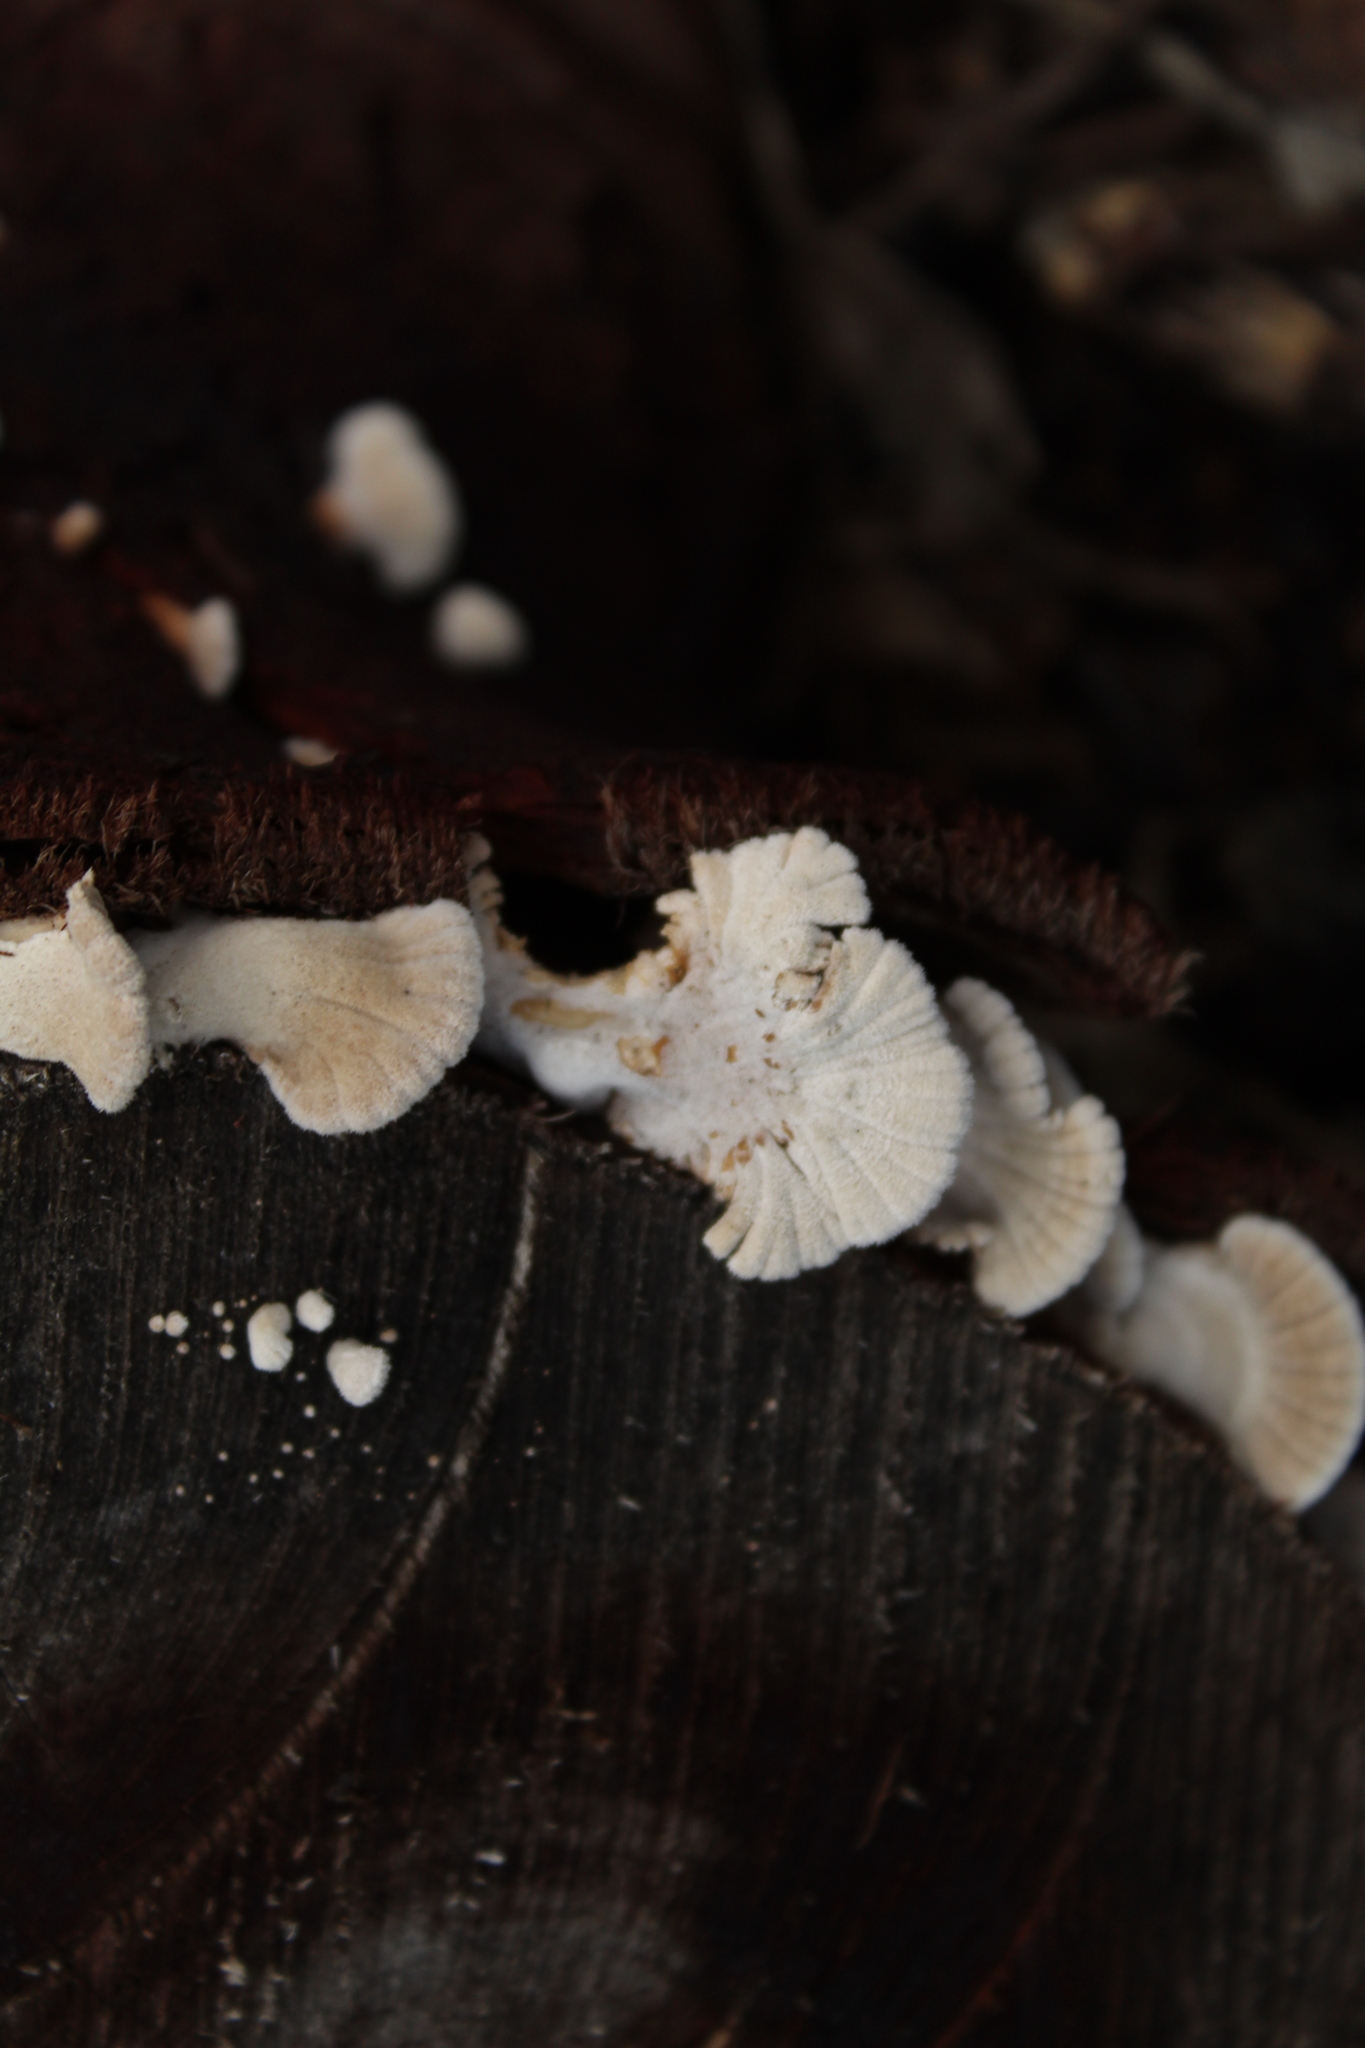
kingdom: Fungi
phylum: Basidiomycota
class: Agaricomycetes
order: Agaricales
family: Schizophyllaceae
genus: Schizophyllum
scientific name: Schizophyllum commune
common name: Common porecrust
